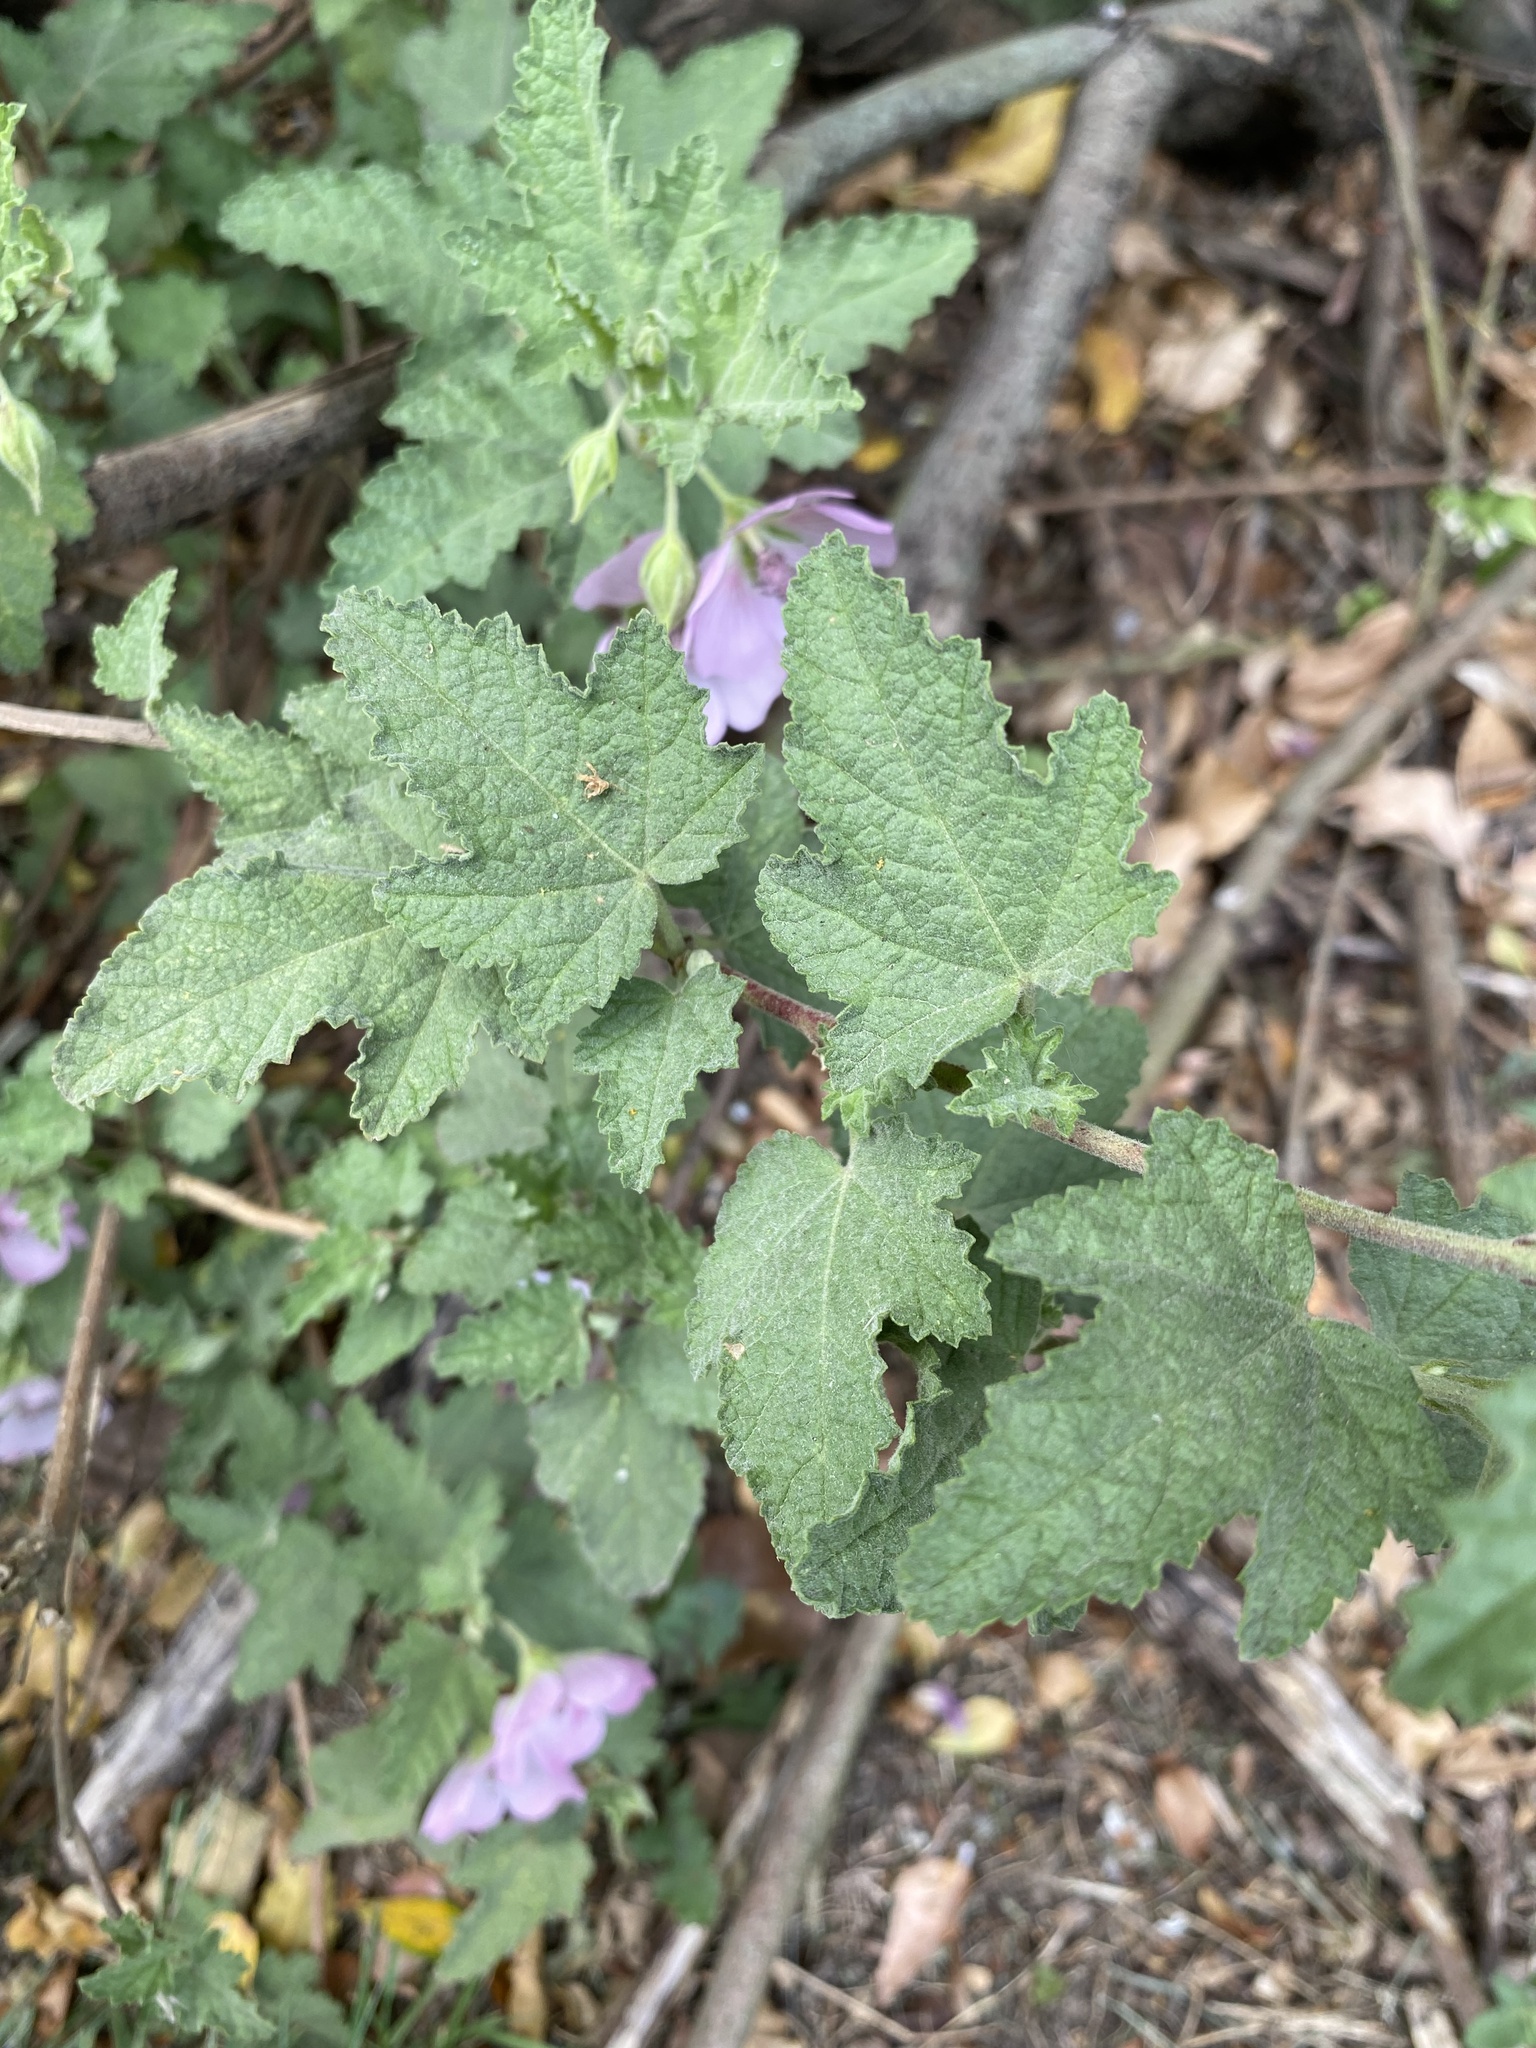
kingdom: Plantae
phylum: Tracheophyta
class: Magnoliopsida
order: Malvales
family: Malvaceae
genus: Anisodontea
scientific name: Anisodontea scabrosa
